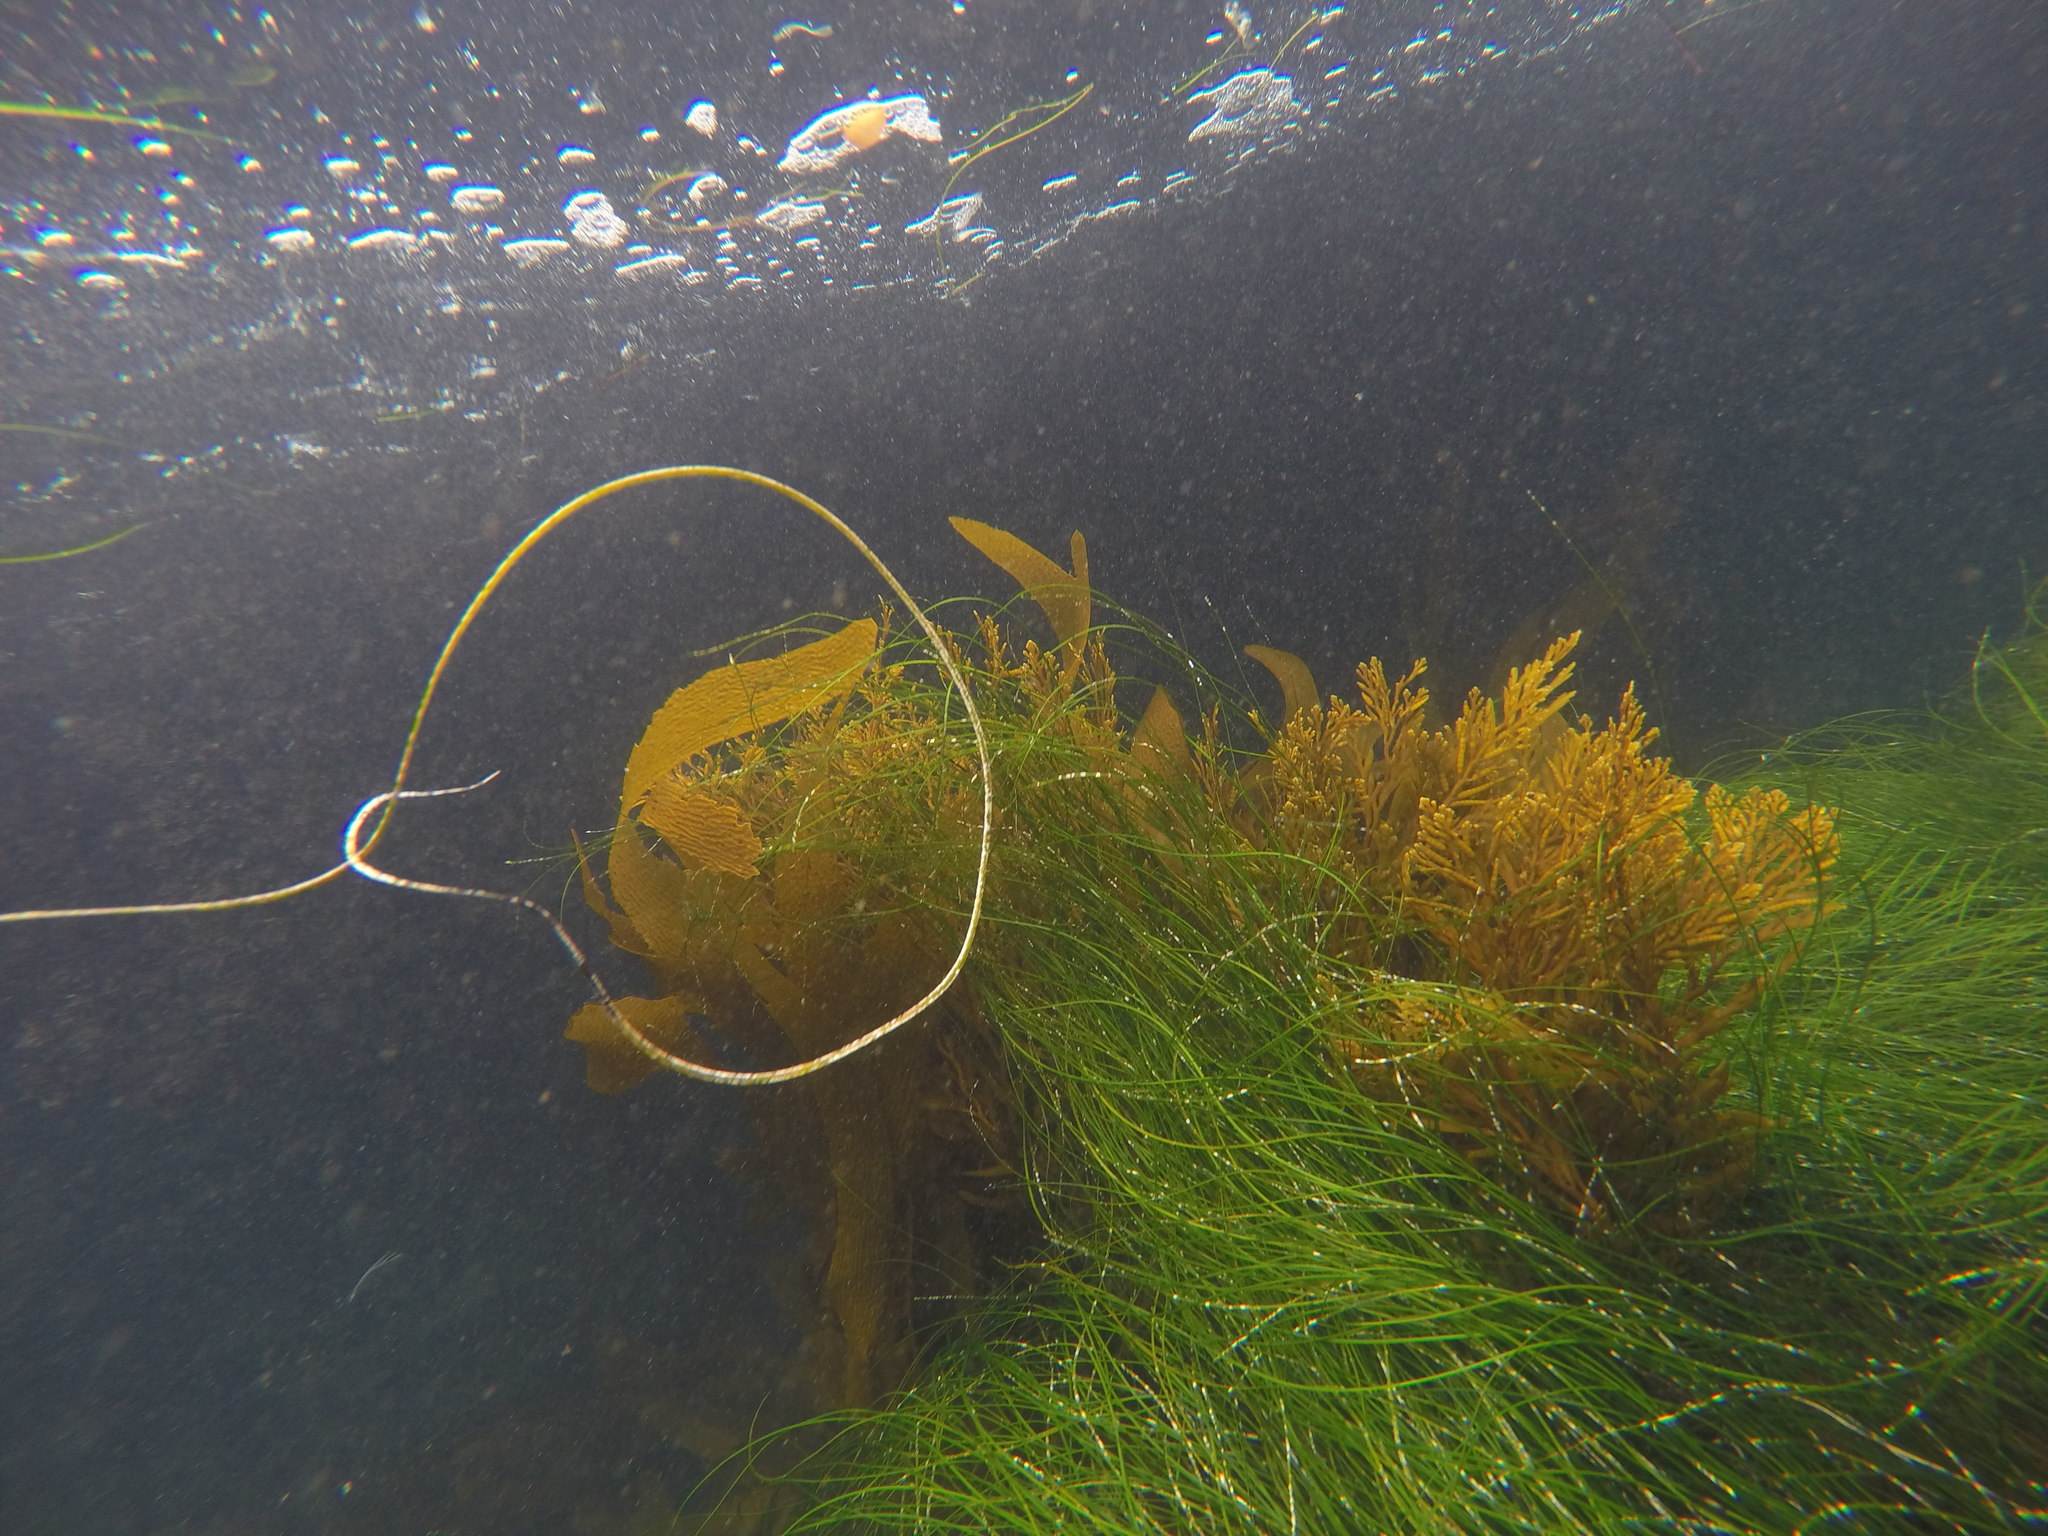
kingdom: Plantae
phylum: Tracheophyta
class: Liliopsida
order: Alismatales
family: Zosteraceae
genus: Phyllospadix
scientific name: Phyllospadix torreyi
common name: Surfgrass
